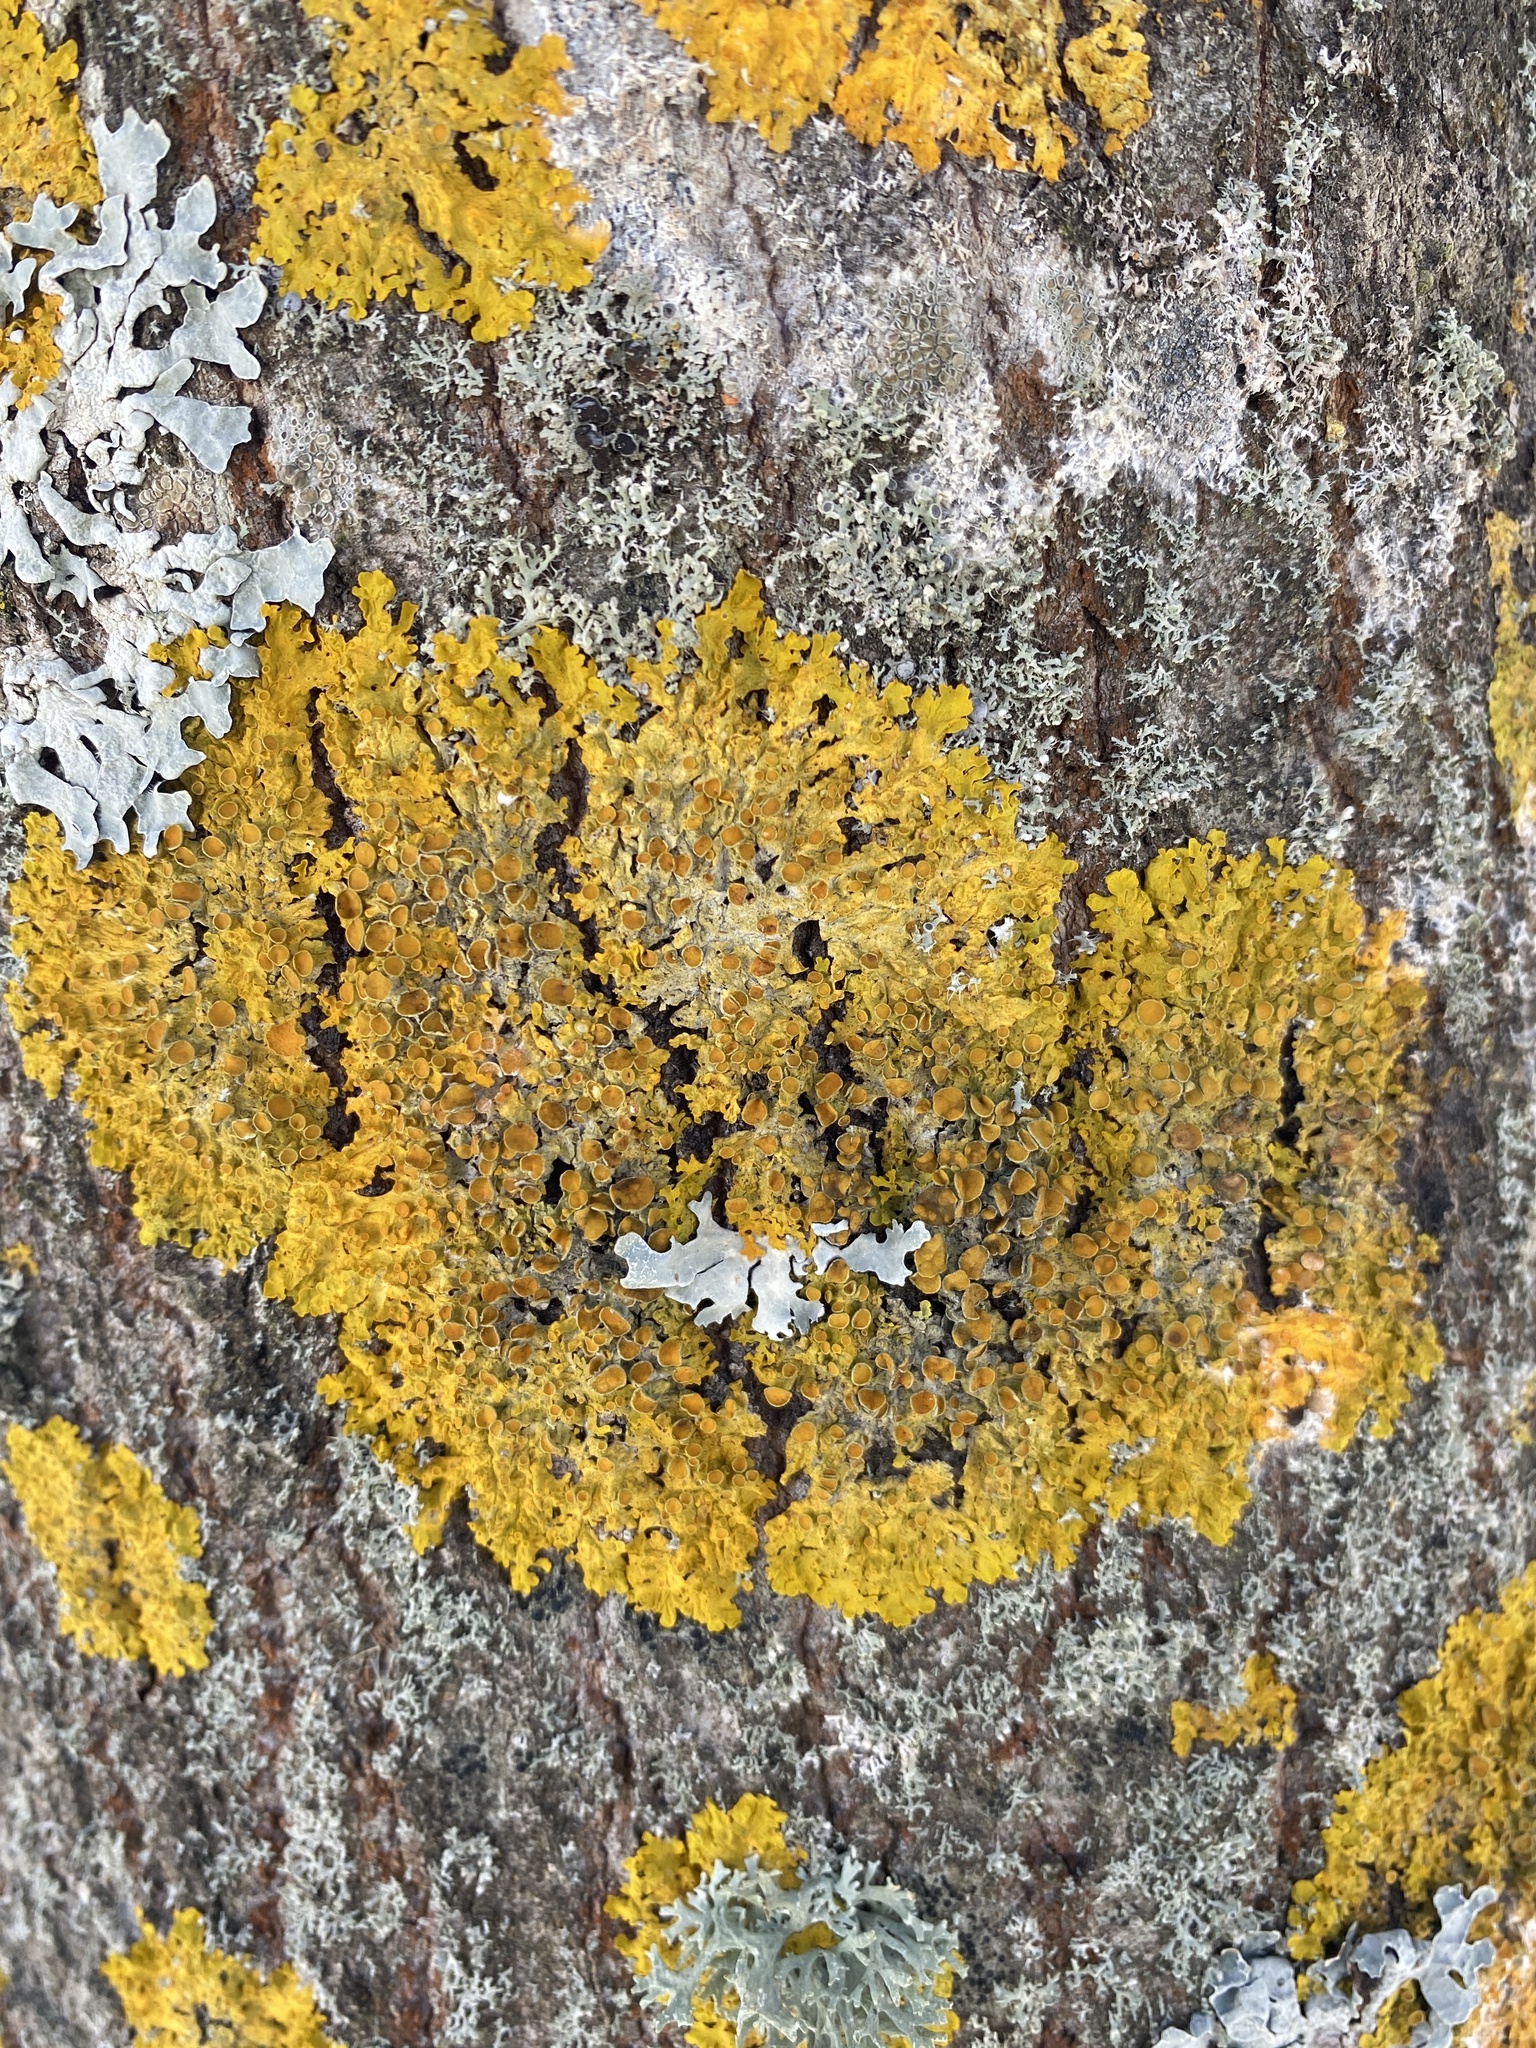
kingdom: Fungi
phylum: Ascomycota
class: Lecanoromycetes
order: Teloschistales
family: Teloschistaceae
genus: Xanthoria
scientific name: Xanthoria parietina
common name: Common orange lichen
